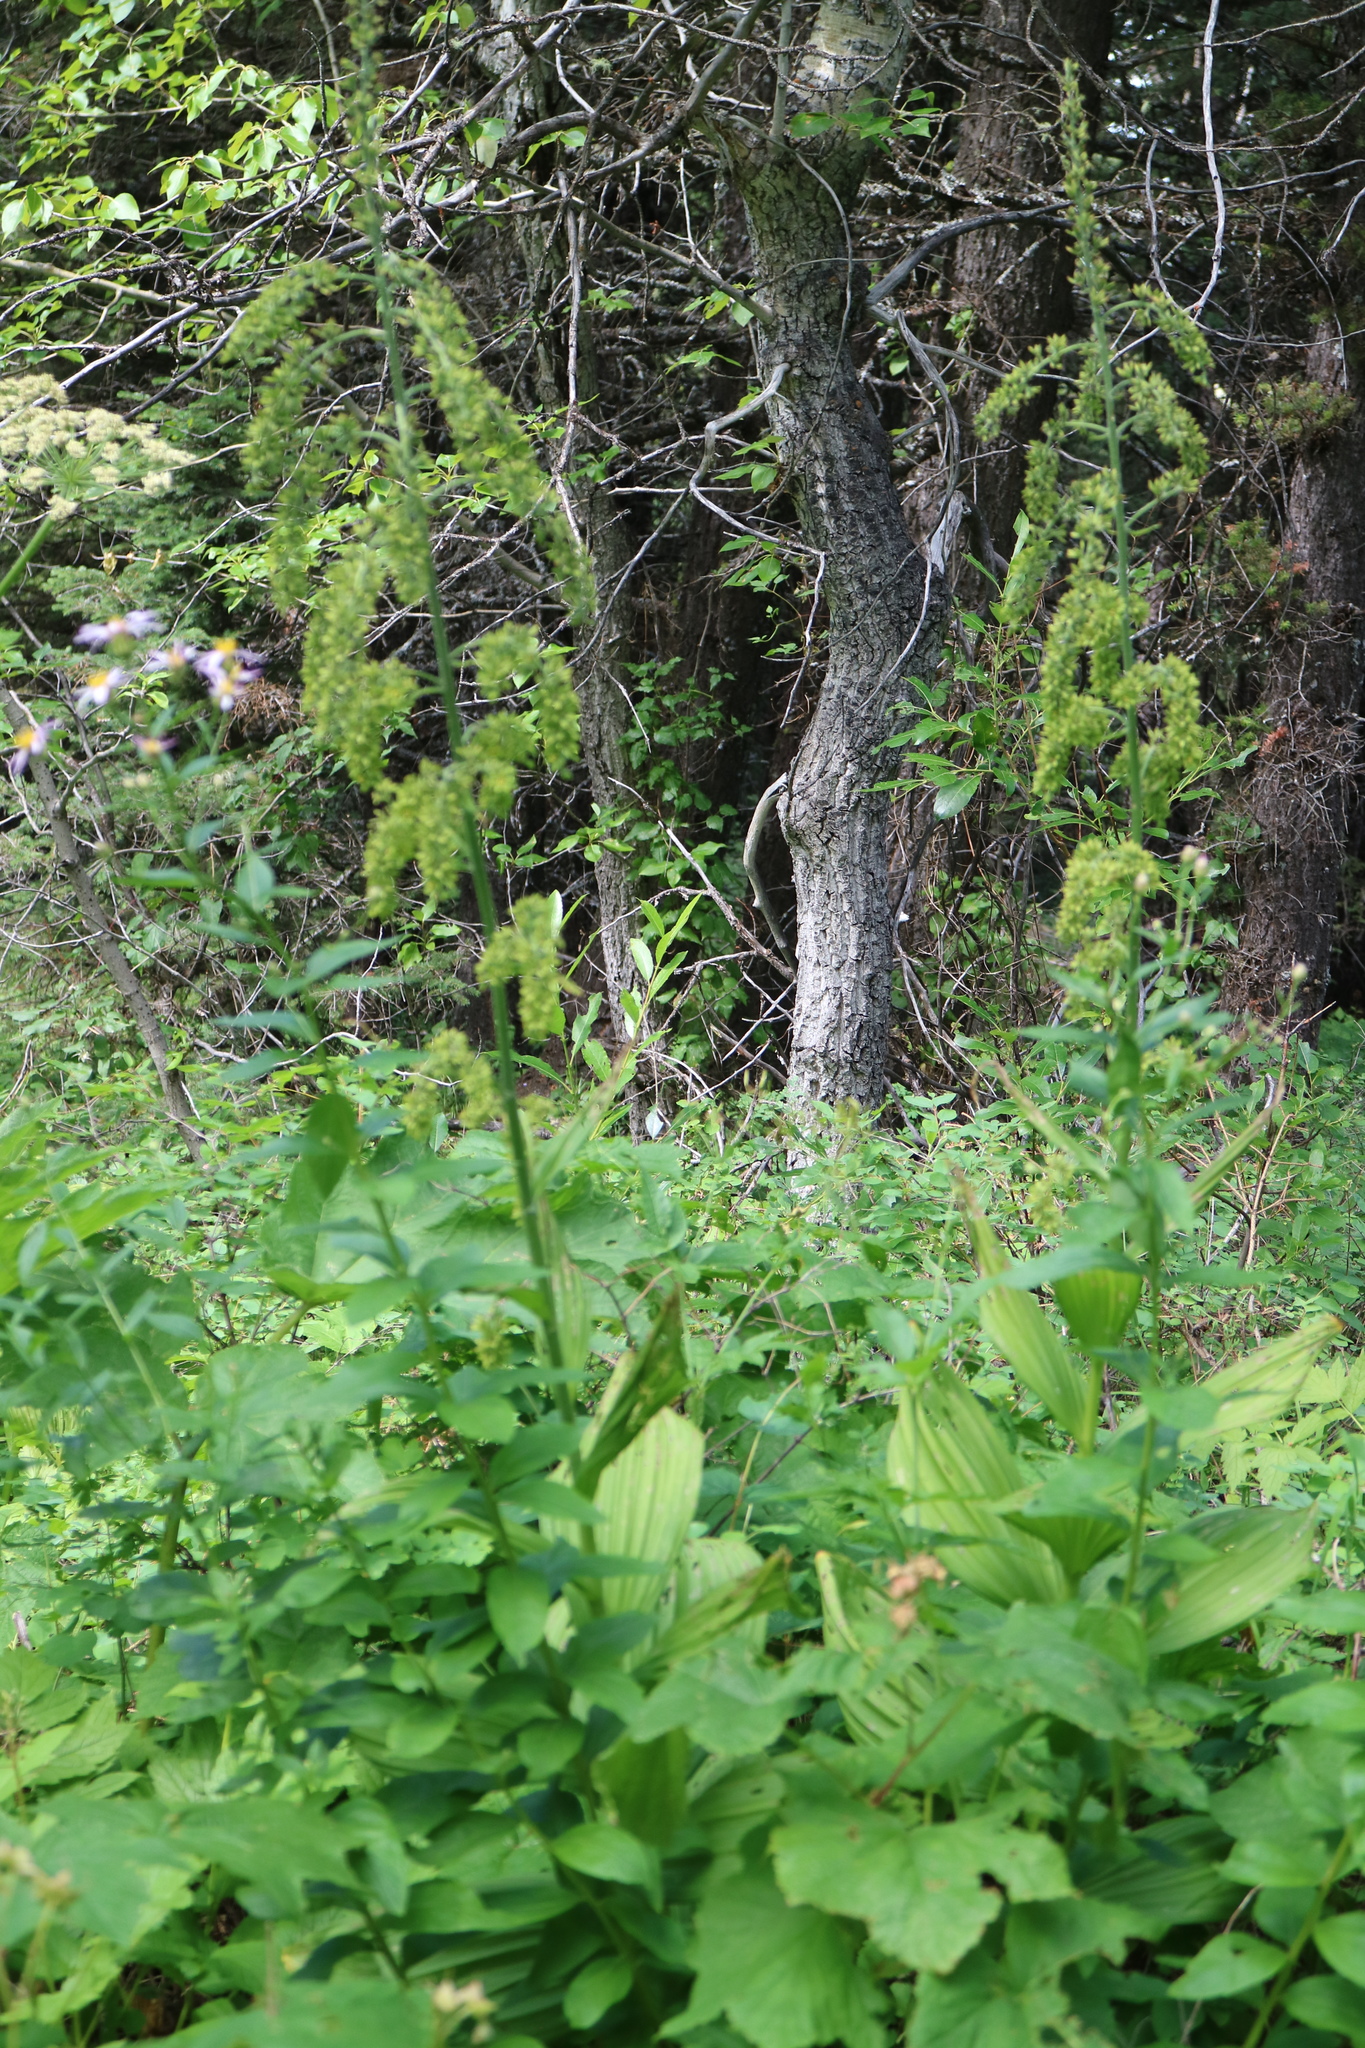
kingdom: Plantae
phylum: Tracheophyta
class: Liliopsida
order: Liliales
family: Melanthiaceae
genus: Veratrum
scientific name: Veratrum viride
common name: American false hellebore
